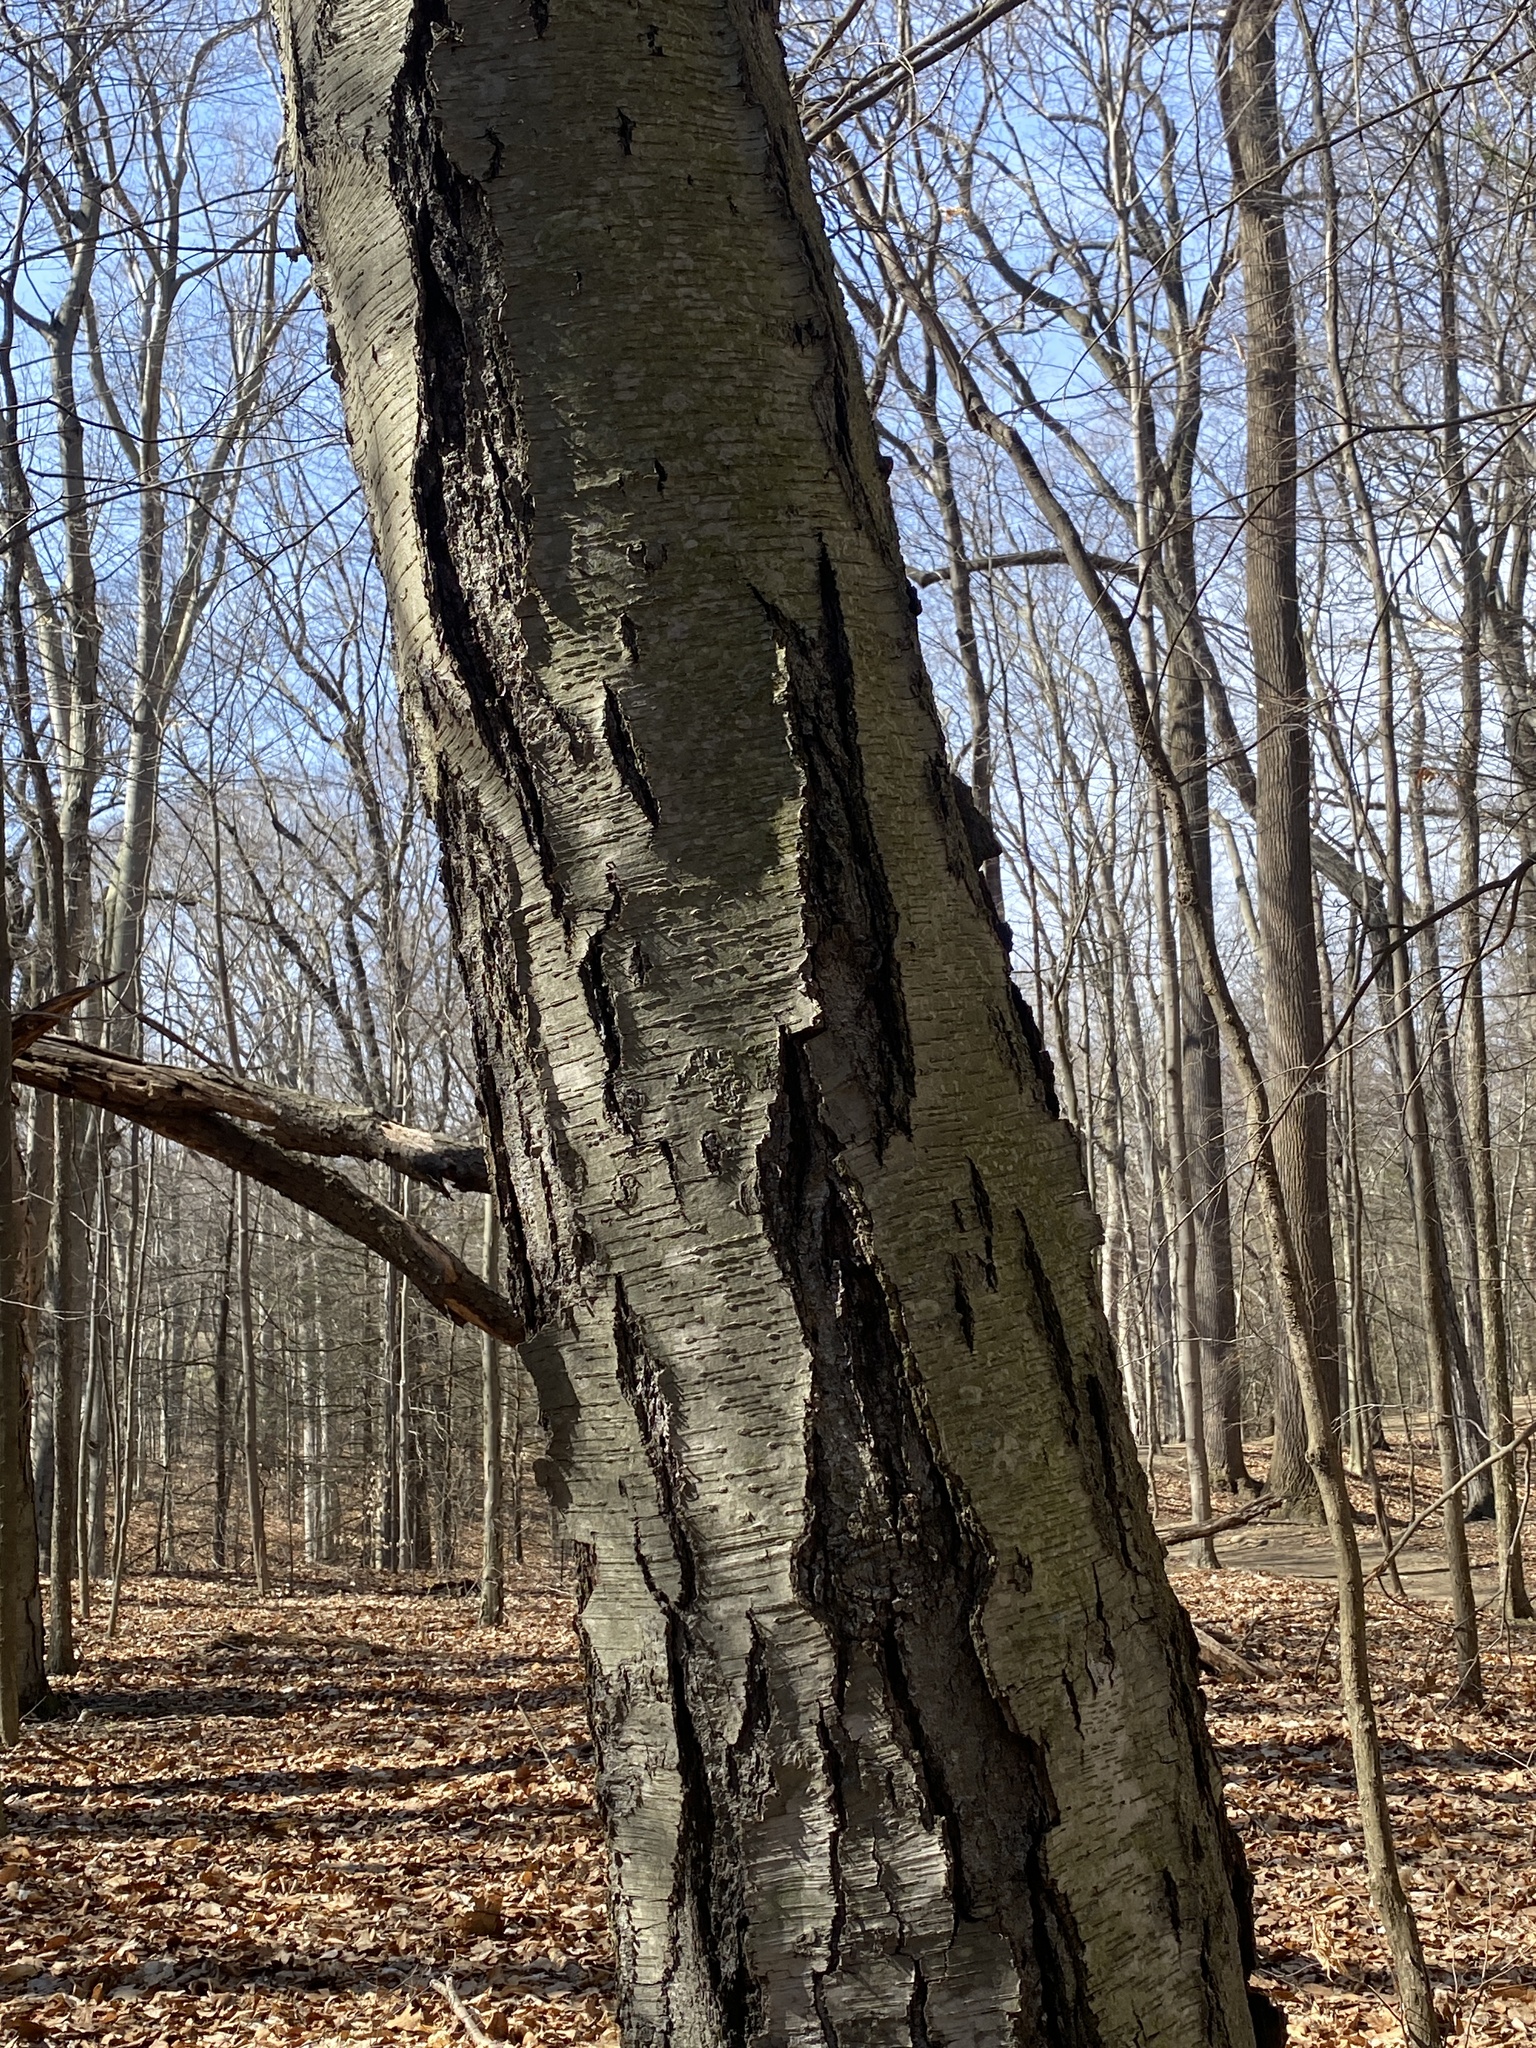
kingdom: Plantae
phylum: Tracheophyta
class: Magnoliopsida
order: Fagales
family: Betulaceae
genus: Betula
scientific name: Betula lenta
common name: Black birch
